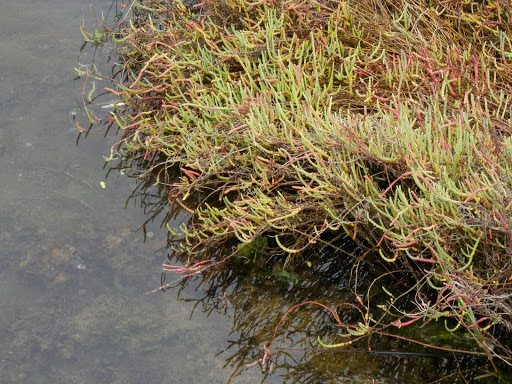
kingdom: Plantae
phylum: Tracheophyta
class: Magnoliopsida
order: Caryophyllales
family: Amaranthaceae
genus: Salicornia
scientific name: Salicornia pacifica
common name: Pacific glasswort
